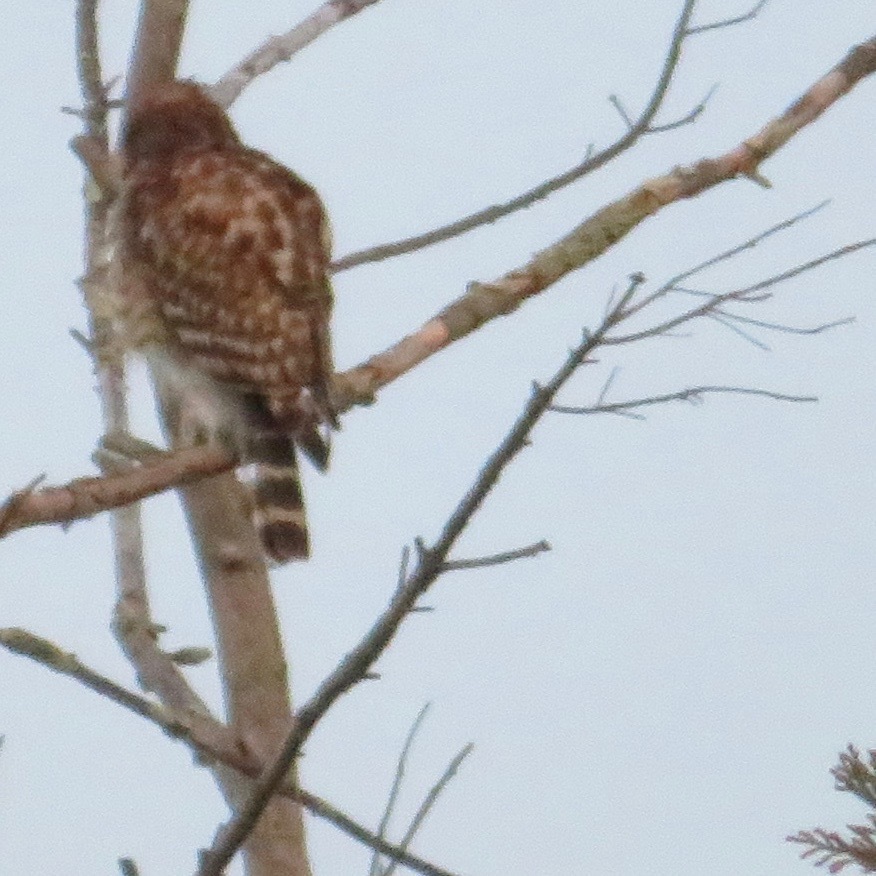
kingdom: Animalia
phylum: Chordata
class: Aves
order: Accipitriformes
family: Accipitridae
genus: Buteo
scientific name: Buteo lineatus
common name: Red-shouldered hawk
